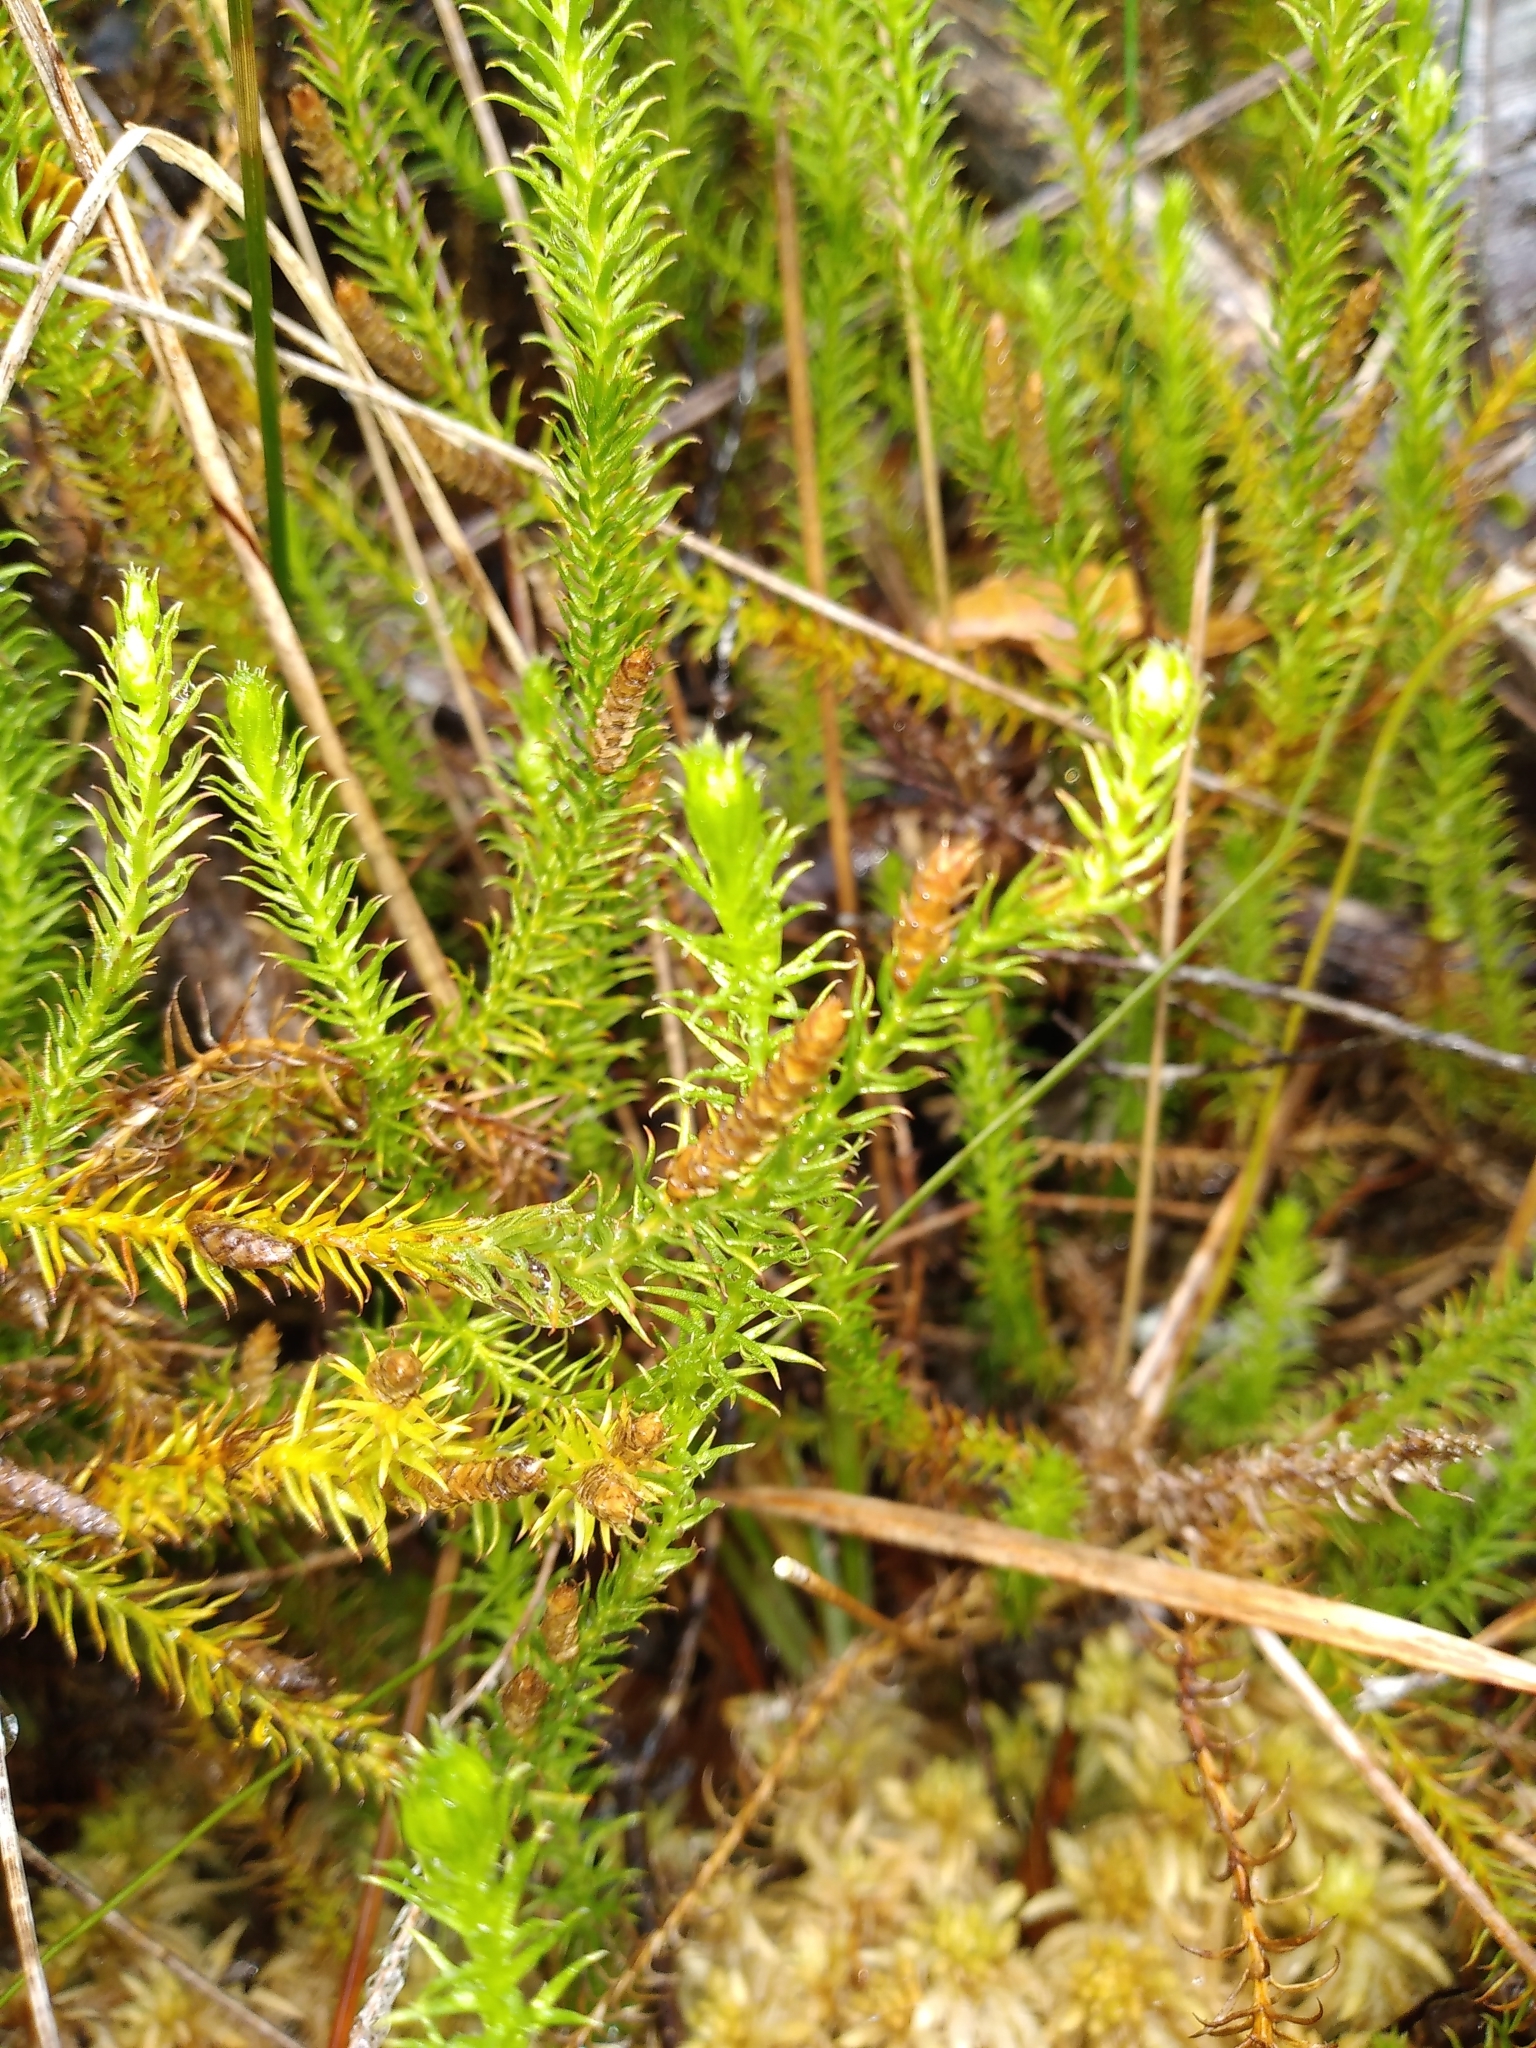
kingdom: Plantae
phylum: Tracheophyta
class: Lycopodiopsida
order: Lycopodiales
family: Lycopodiaceae
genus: Lateristachys
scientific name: Lateristachys lateralis
